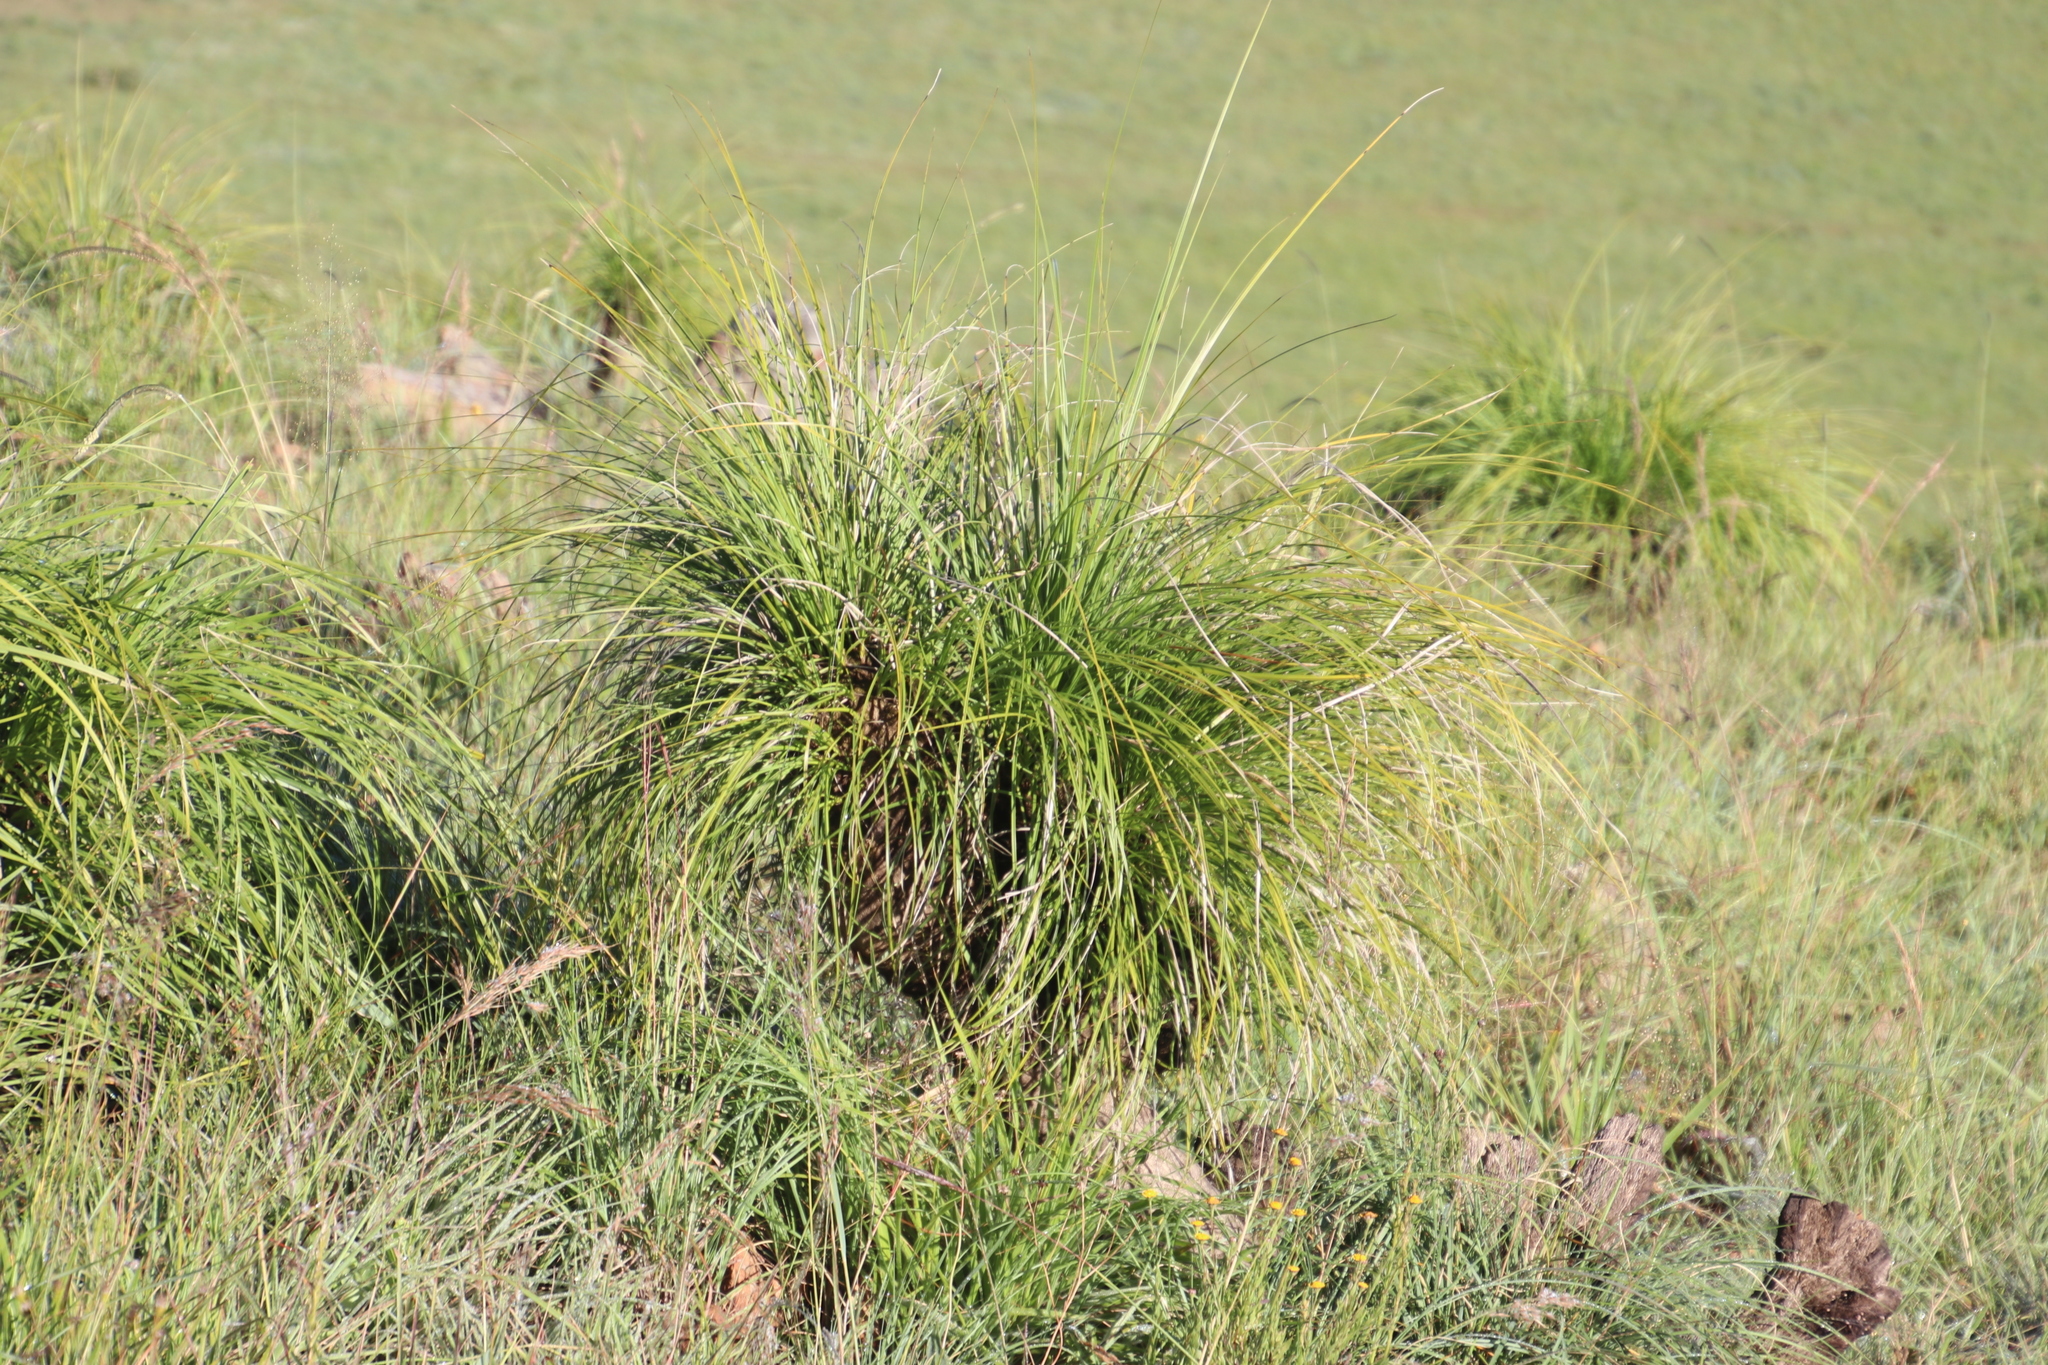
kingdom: Plantae
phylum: Tracheophyta
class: Liliopsida
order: Pandanales
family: Velloziaceae
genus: Xerophyta
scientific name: Xerophyta retinervis
